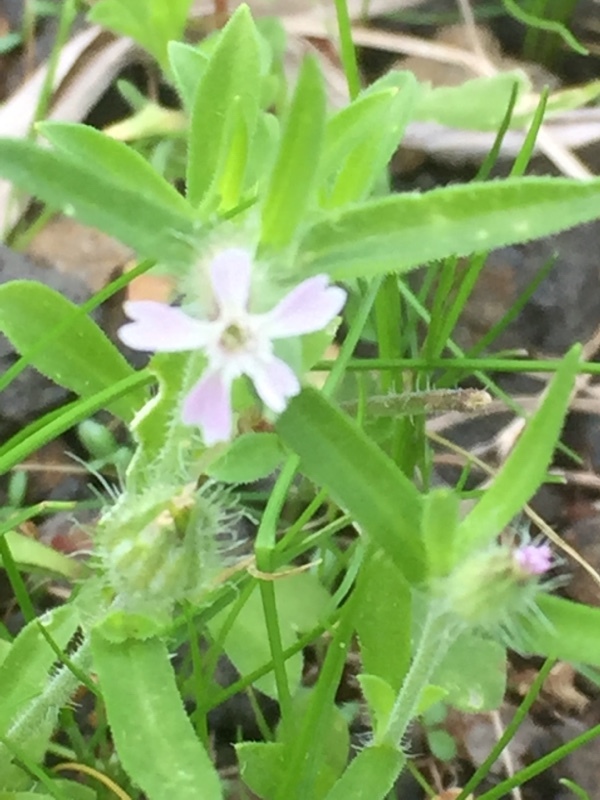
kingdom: Plantae
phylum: Tracheophyta
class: Magnoliopsida
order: Caryophyllales
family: Caryophyllaceae
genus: Silene
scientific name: Silene gallica
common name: Small-flowered catchfly
